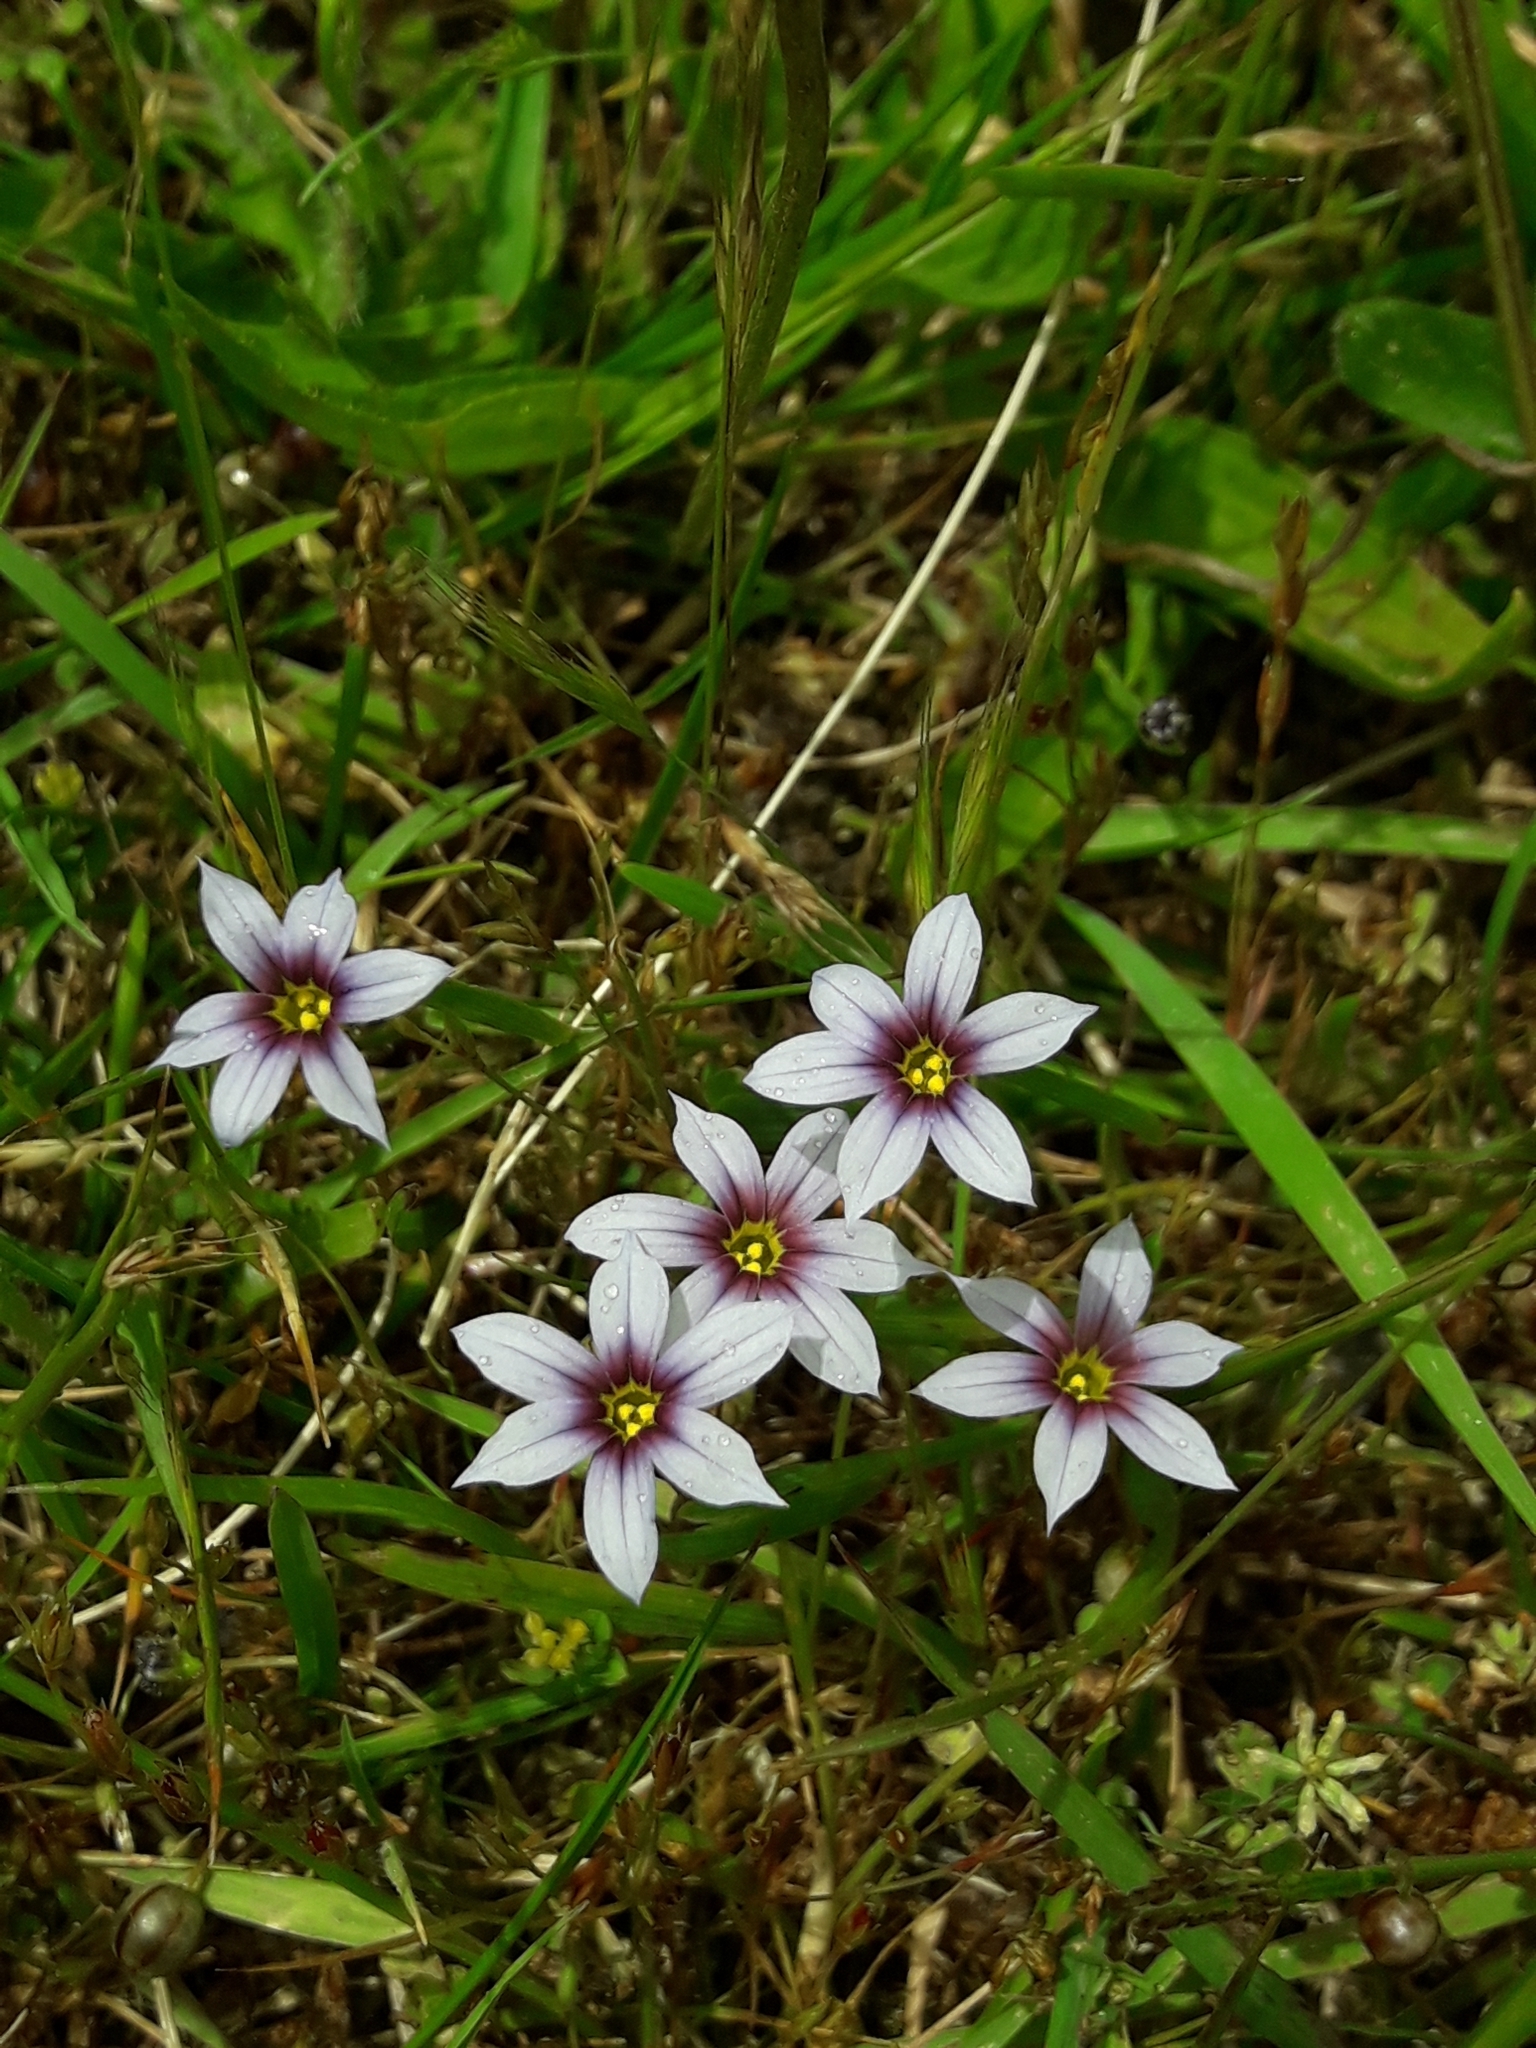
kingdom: Plantae
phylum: Tracheophyta
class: Liliopsida
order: Asparagales
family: Iridaceae
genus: Sisyrinchium
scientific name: Sisyrinchium micranthum
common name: Bermuda pigroot
